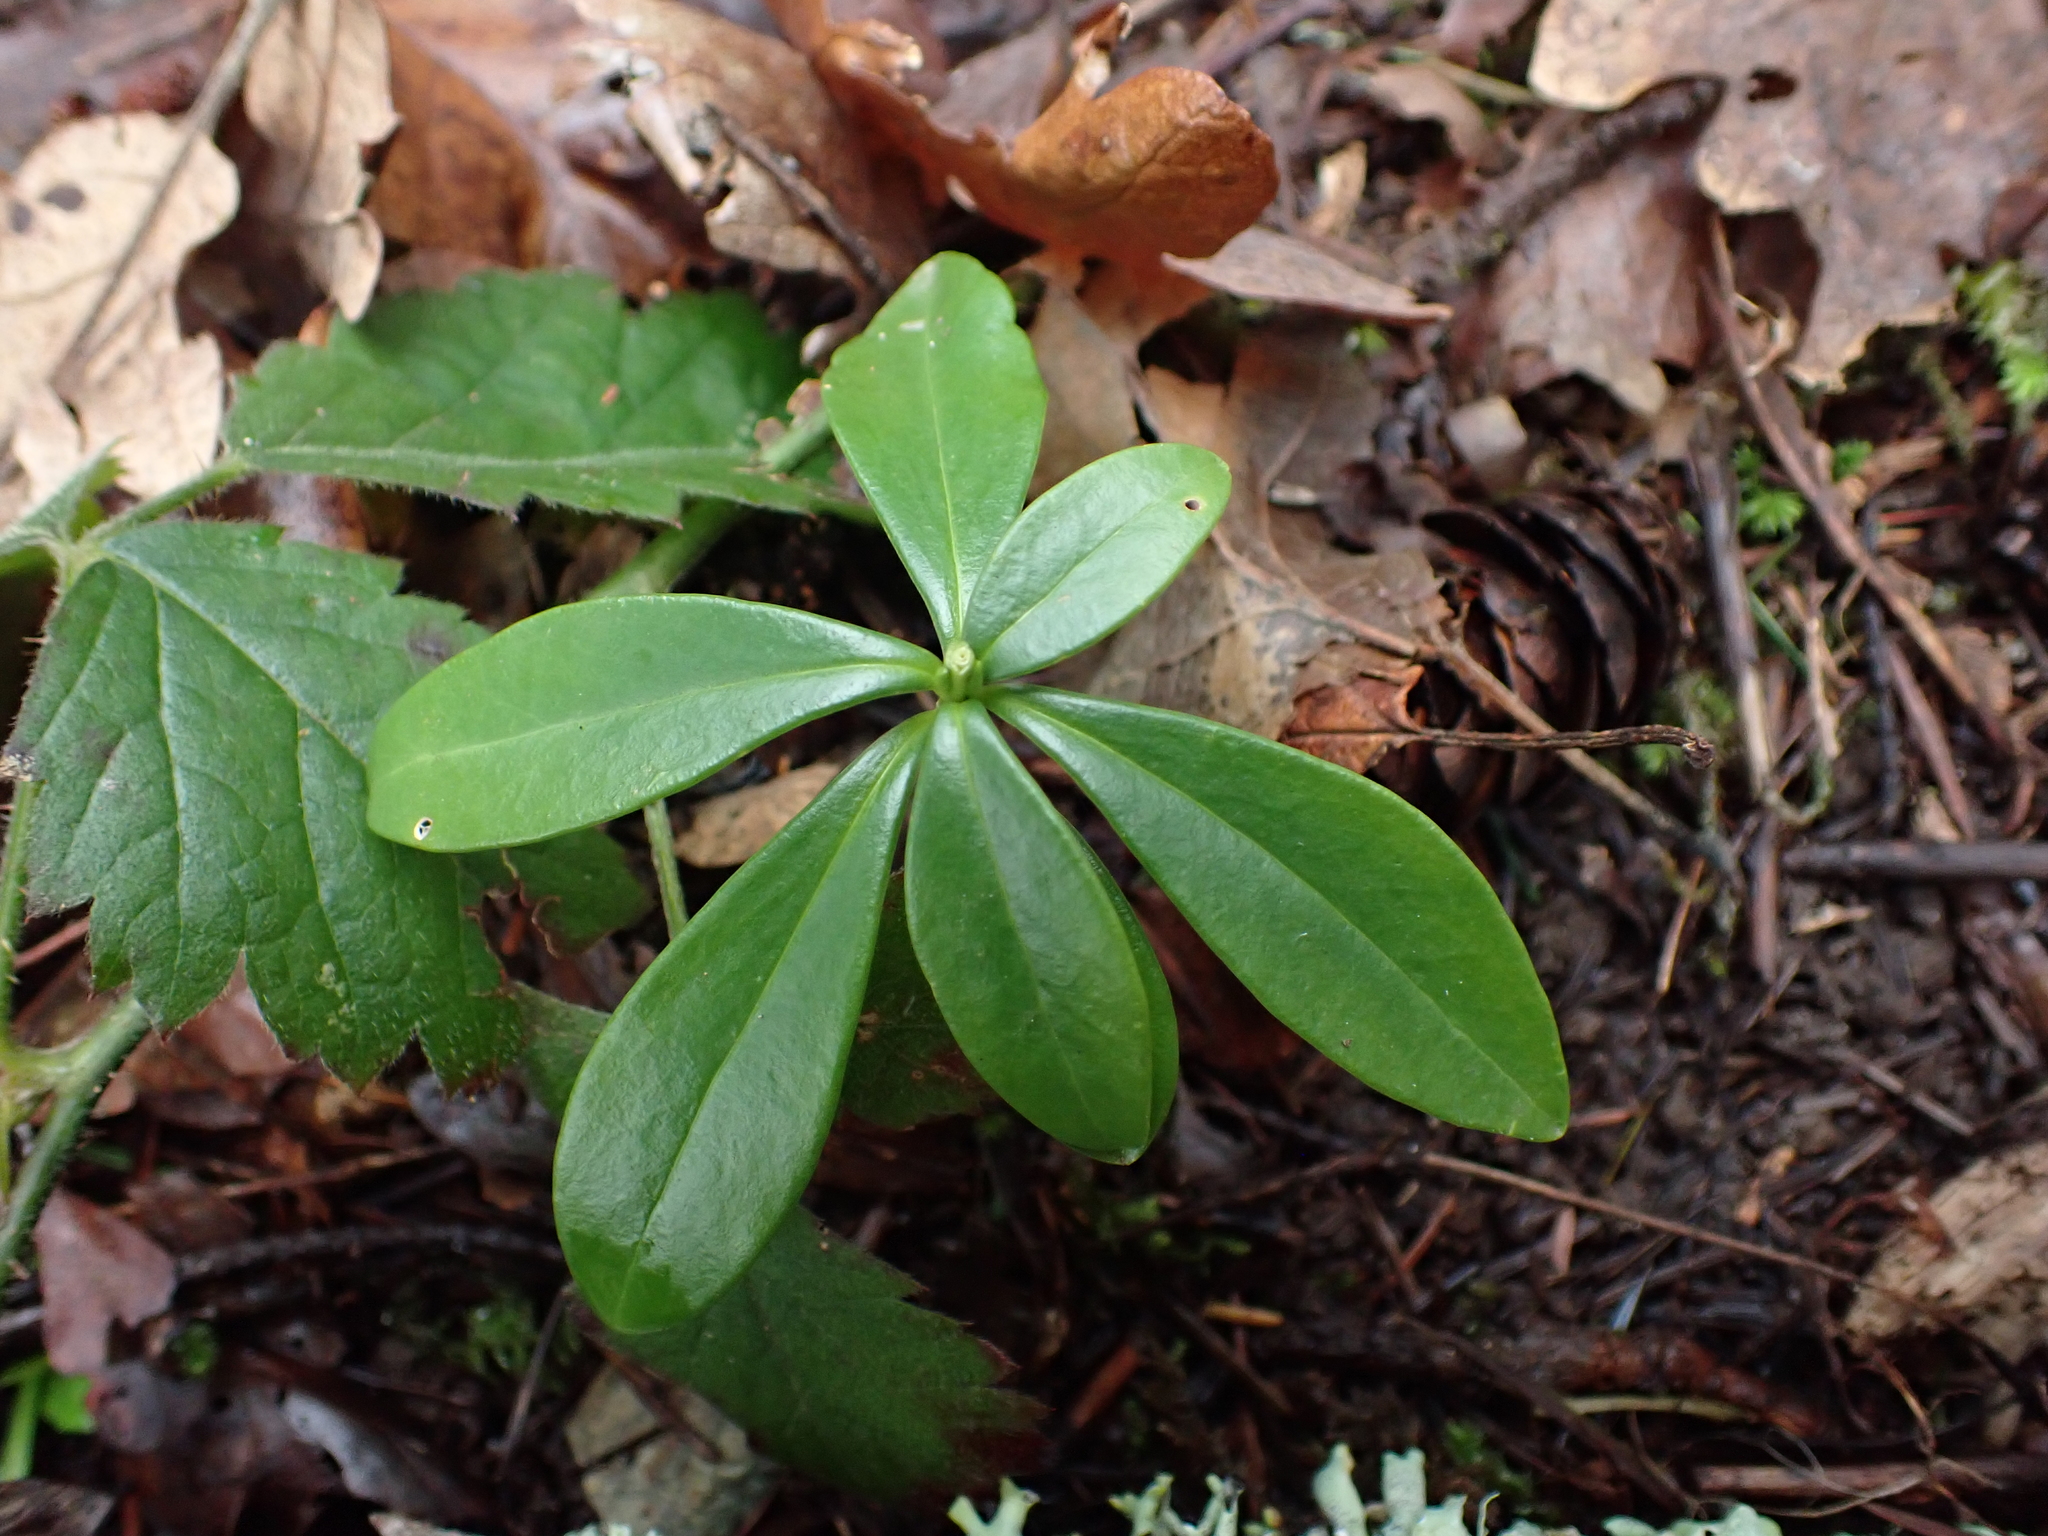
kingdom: Plantae
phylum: Tracheophyta
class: Magnoliopsida
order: Malvales
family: Thymelaeaceae
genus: Daphne
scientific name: Daphne laureola
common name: Spurge-laurel
